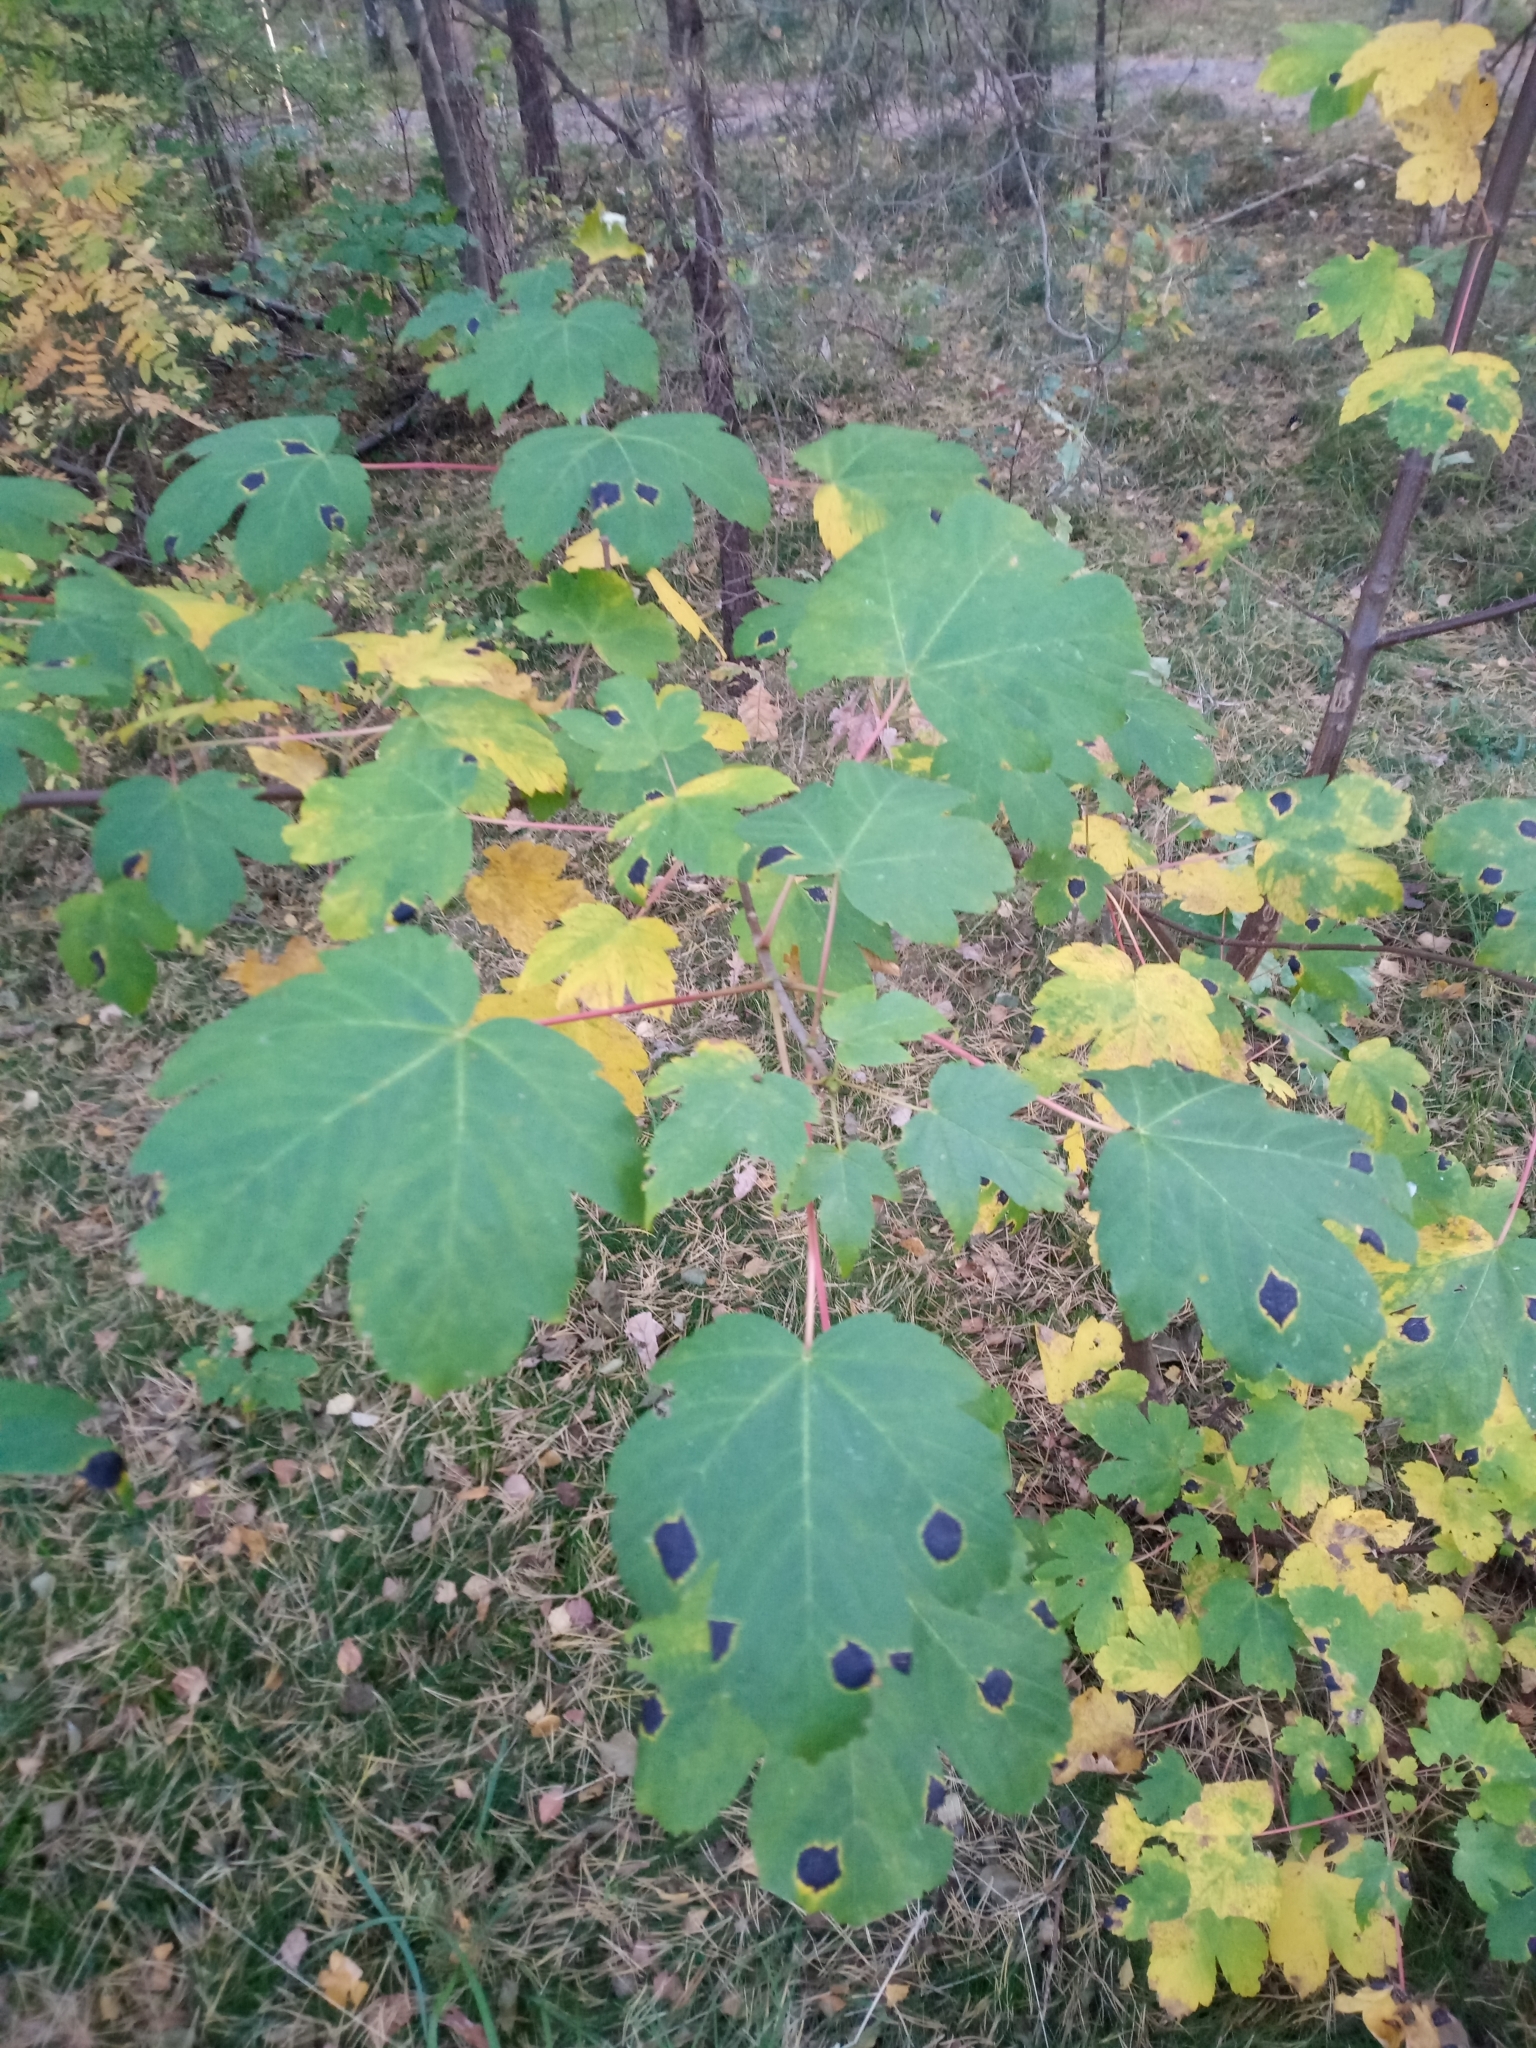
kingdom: Plantae
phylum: Tracheophyta
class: Magnoliopsida
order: Sapindales
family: Sapindaceae
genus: Acer
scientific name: Acer pseudoplatanus
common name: Sycamore
